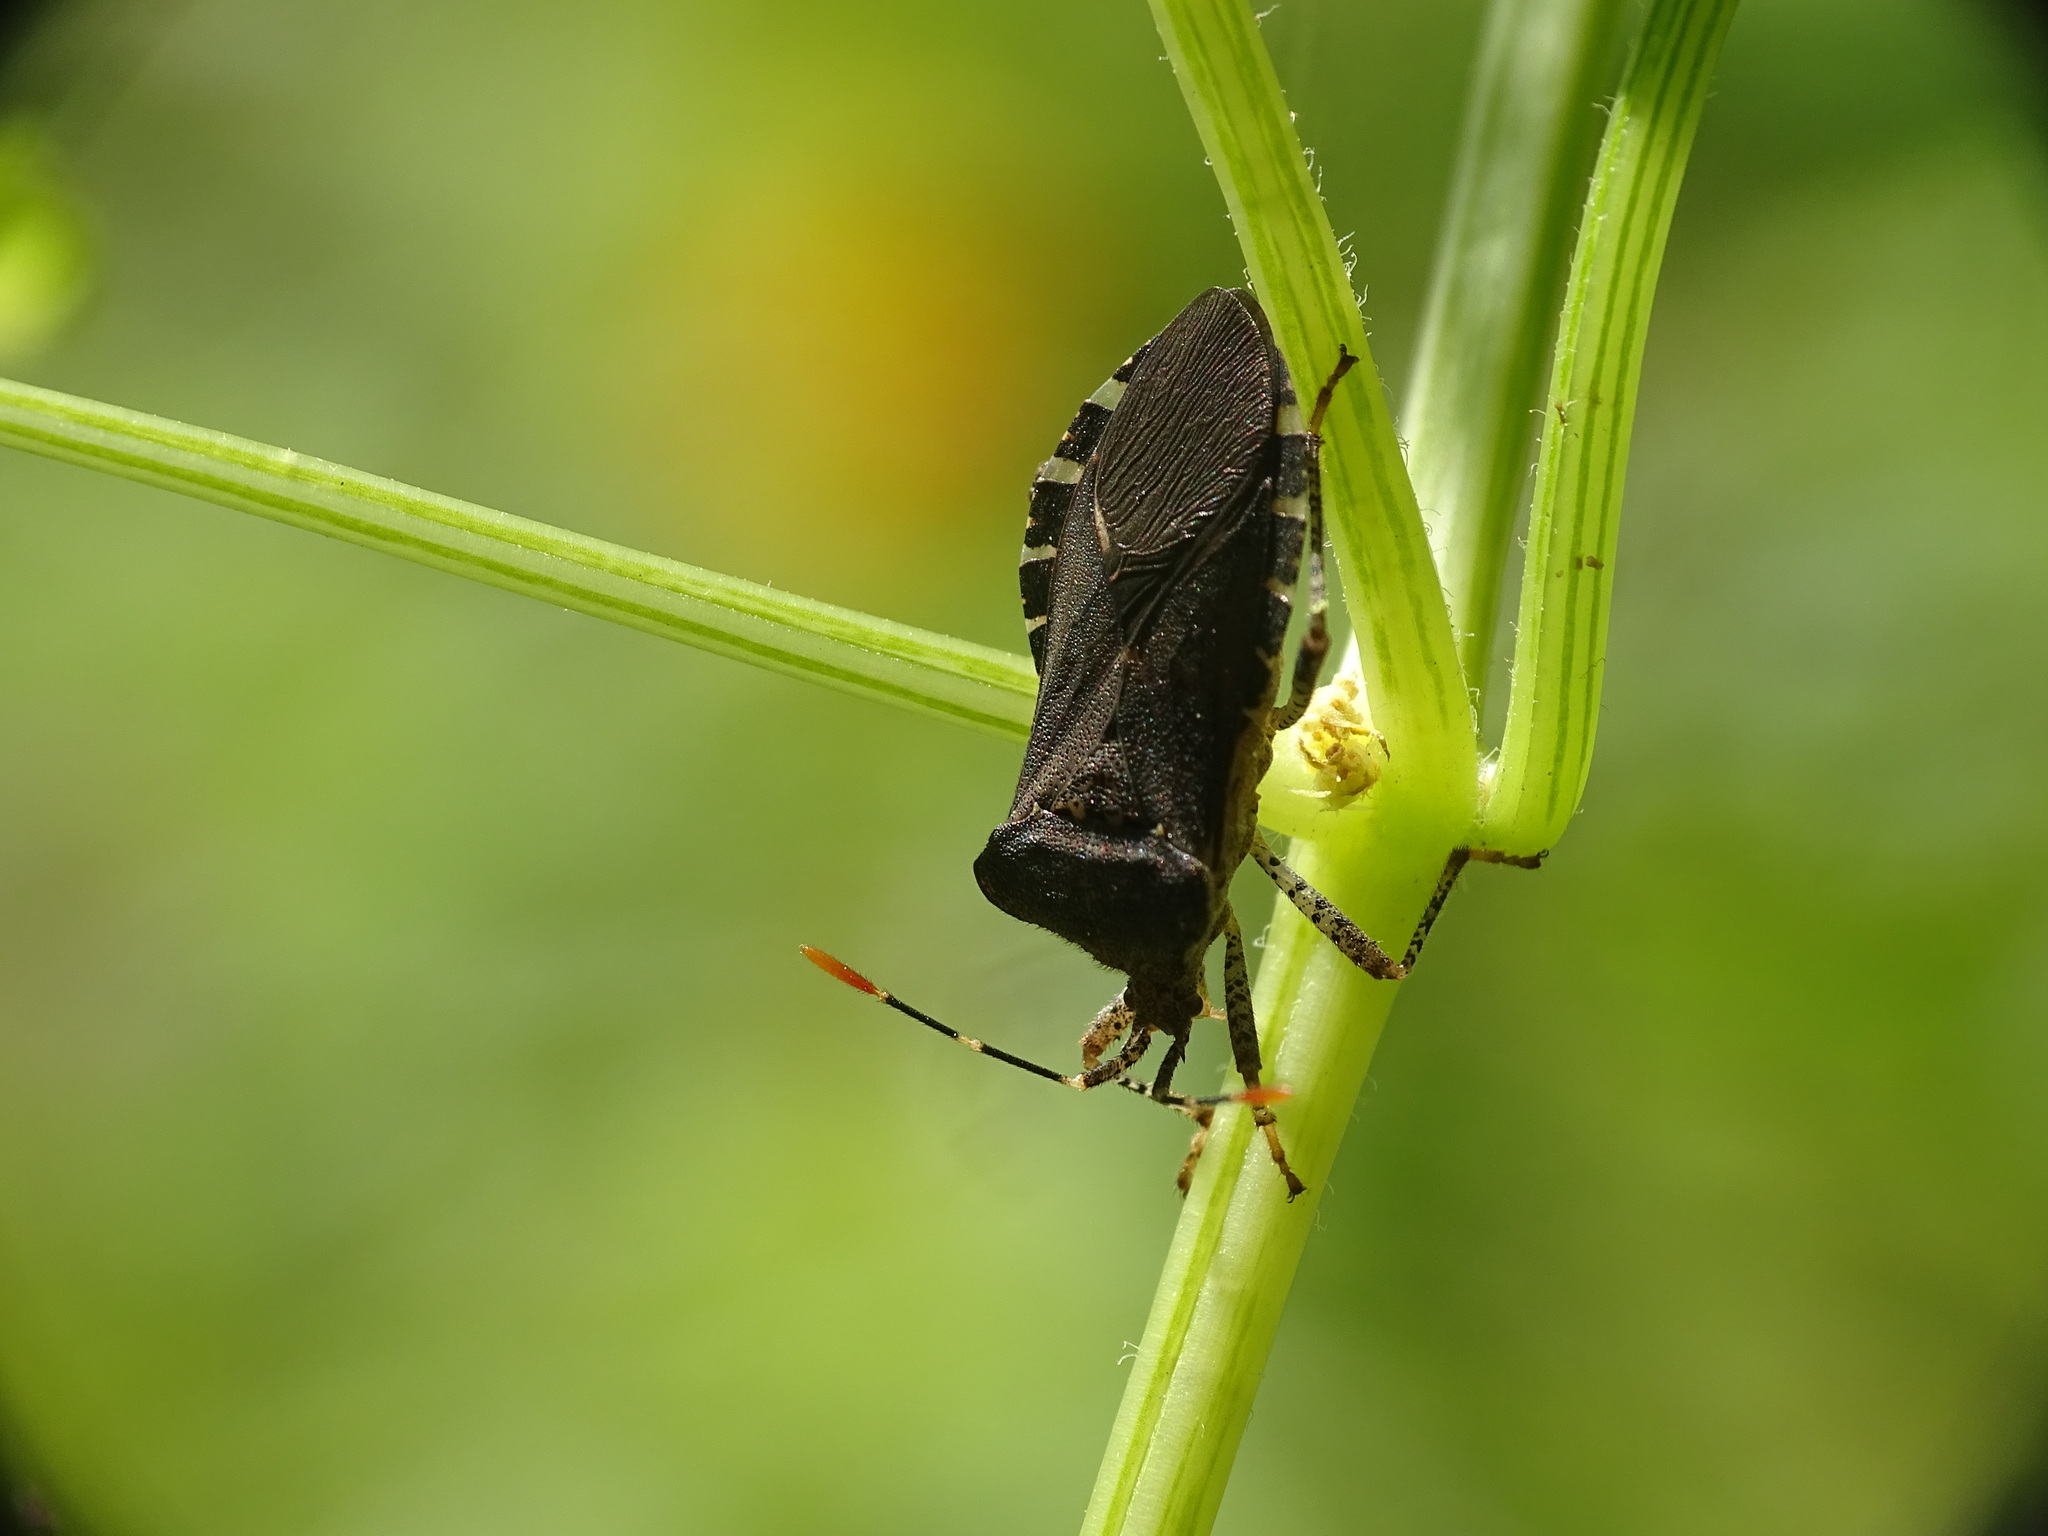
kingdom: Animalia
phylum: Arthropoda
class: Insecta
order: Hemiptera
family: Coreidae
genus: Anasa
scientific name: Anasa armigera
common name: Horned squash bug
